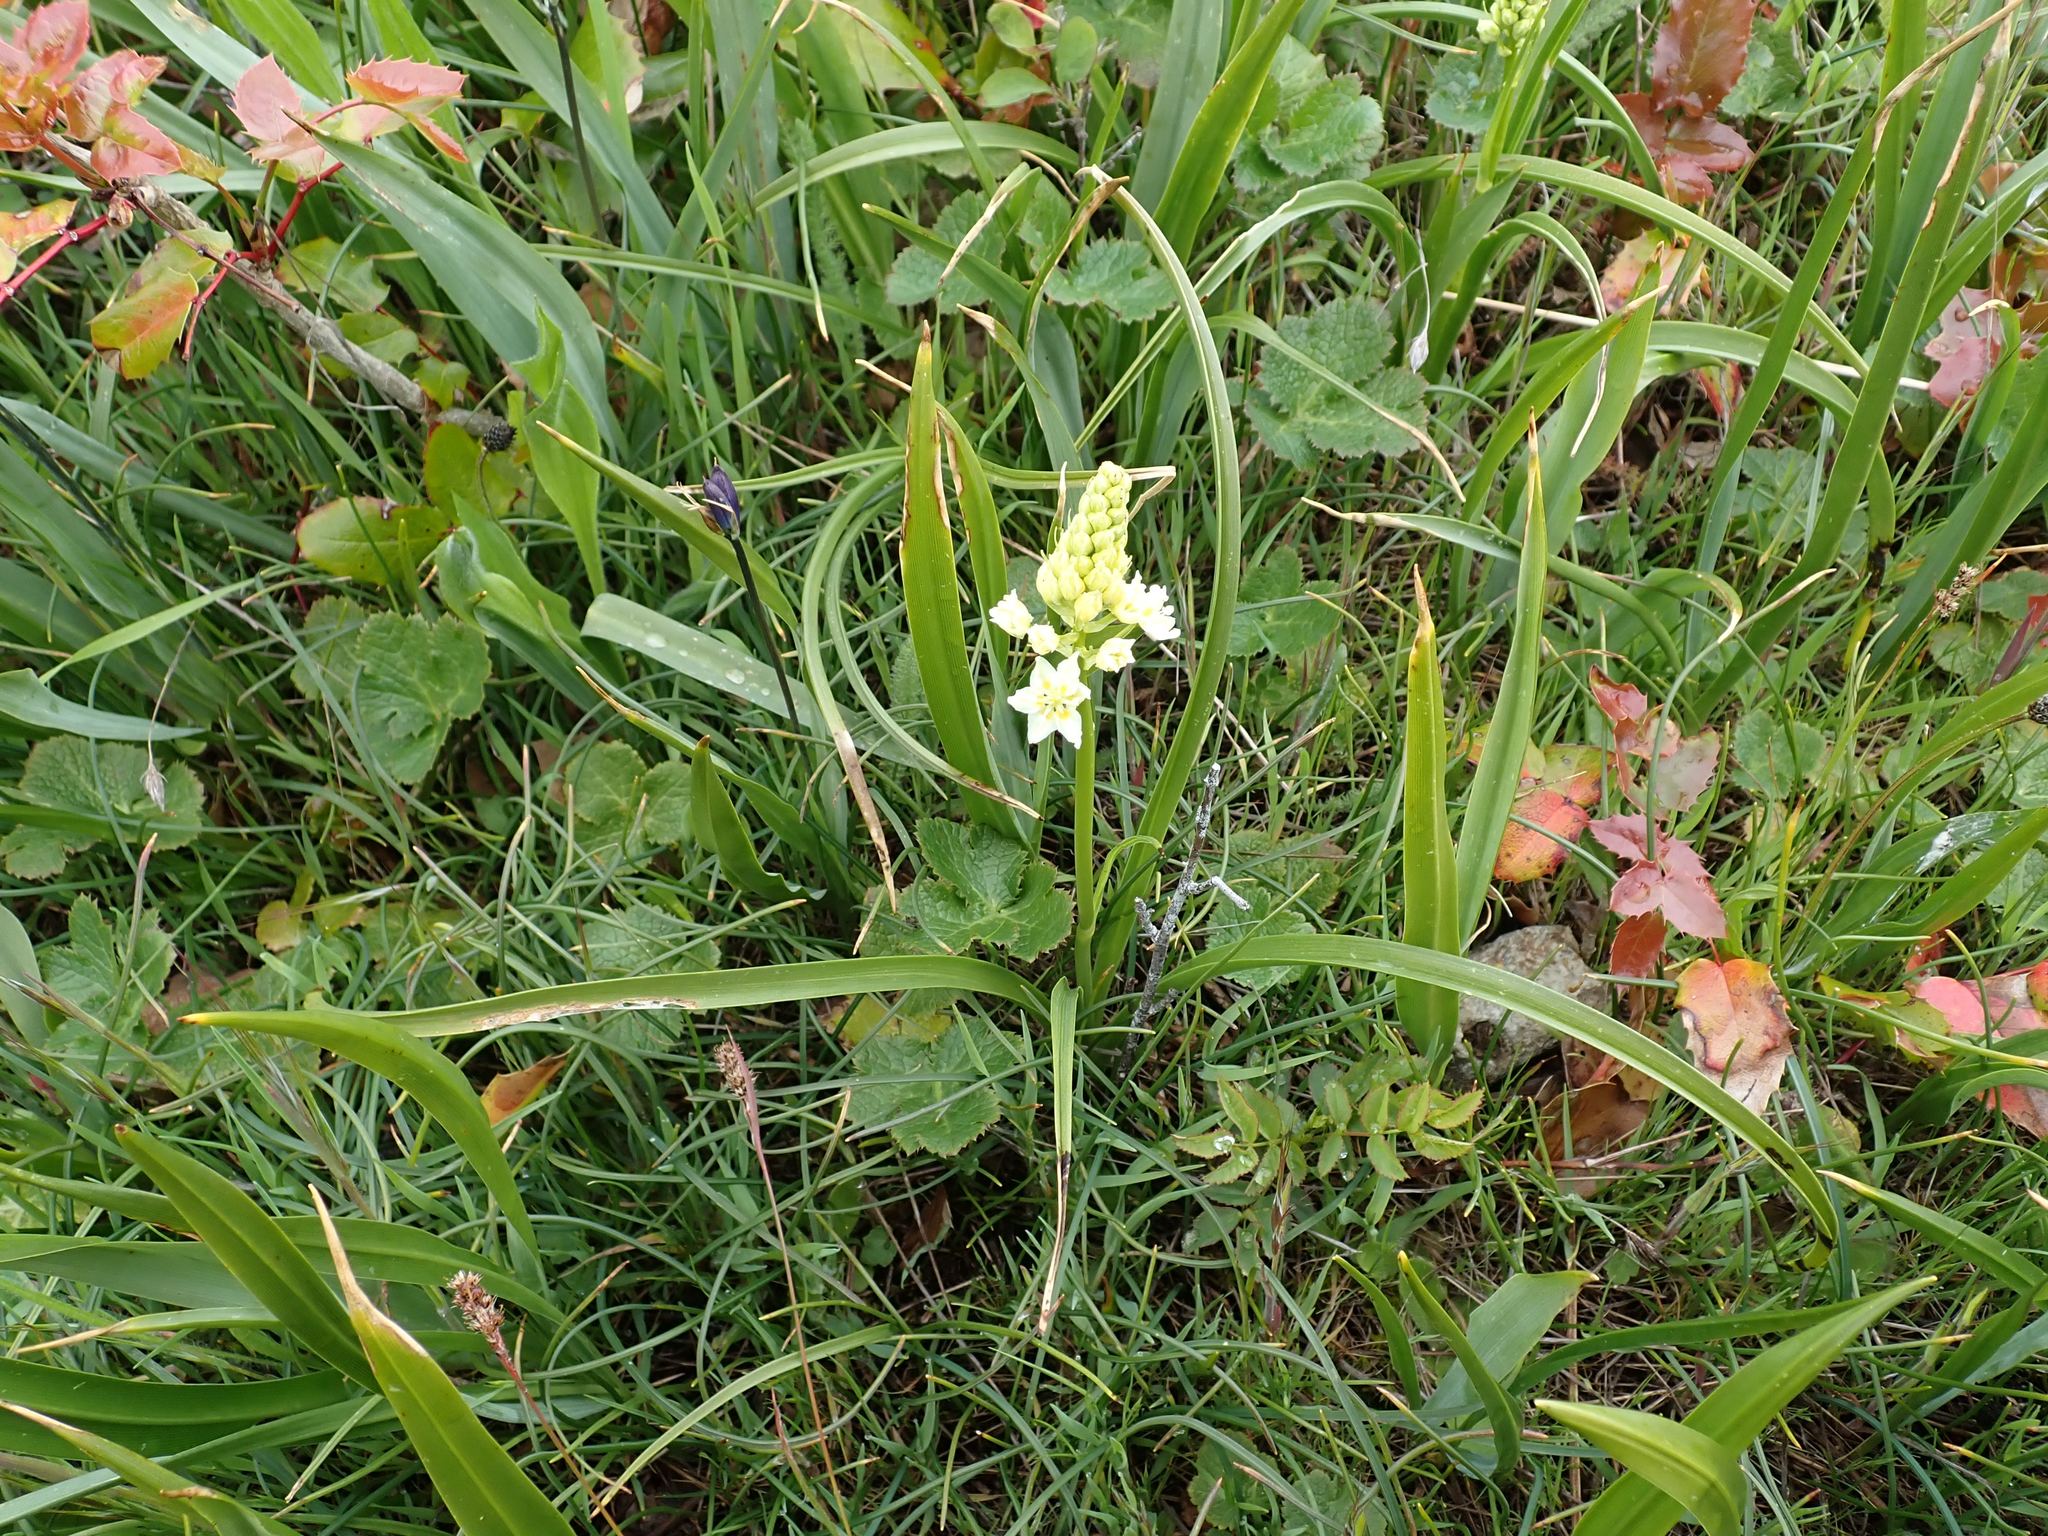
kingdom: Plantae
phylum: Tracheophyta
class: Liliopsida
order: Liliales
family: Melanthiaceae
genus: Toxicoscordion
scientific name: Toxicoscordion venenosum
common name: Meadow death camas
